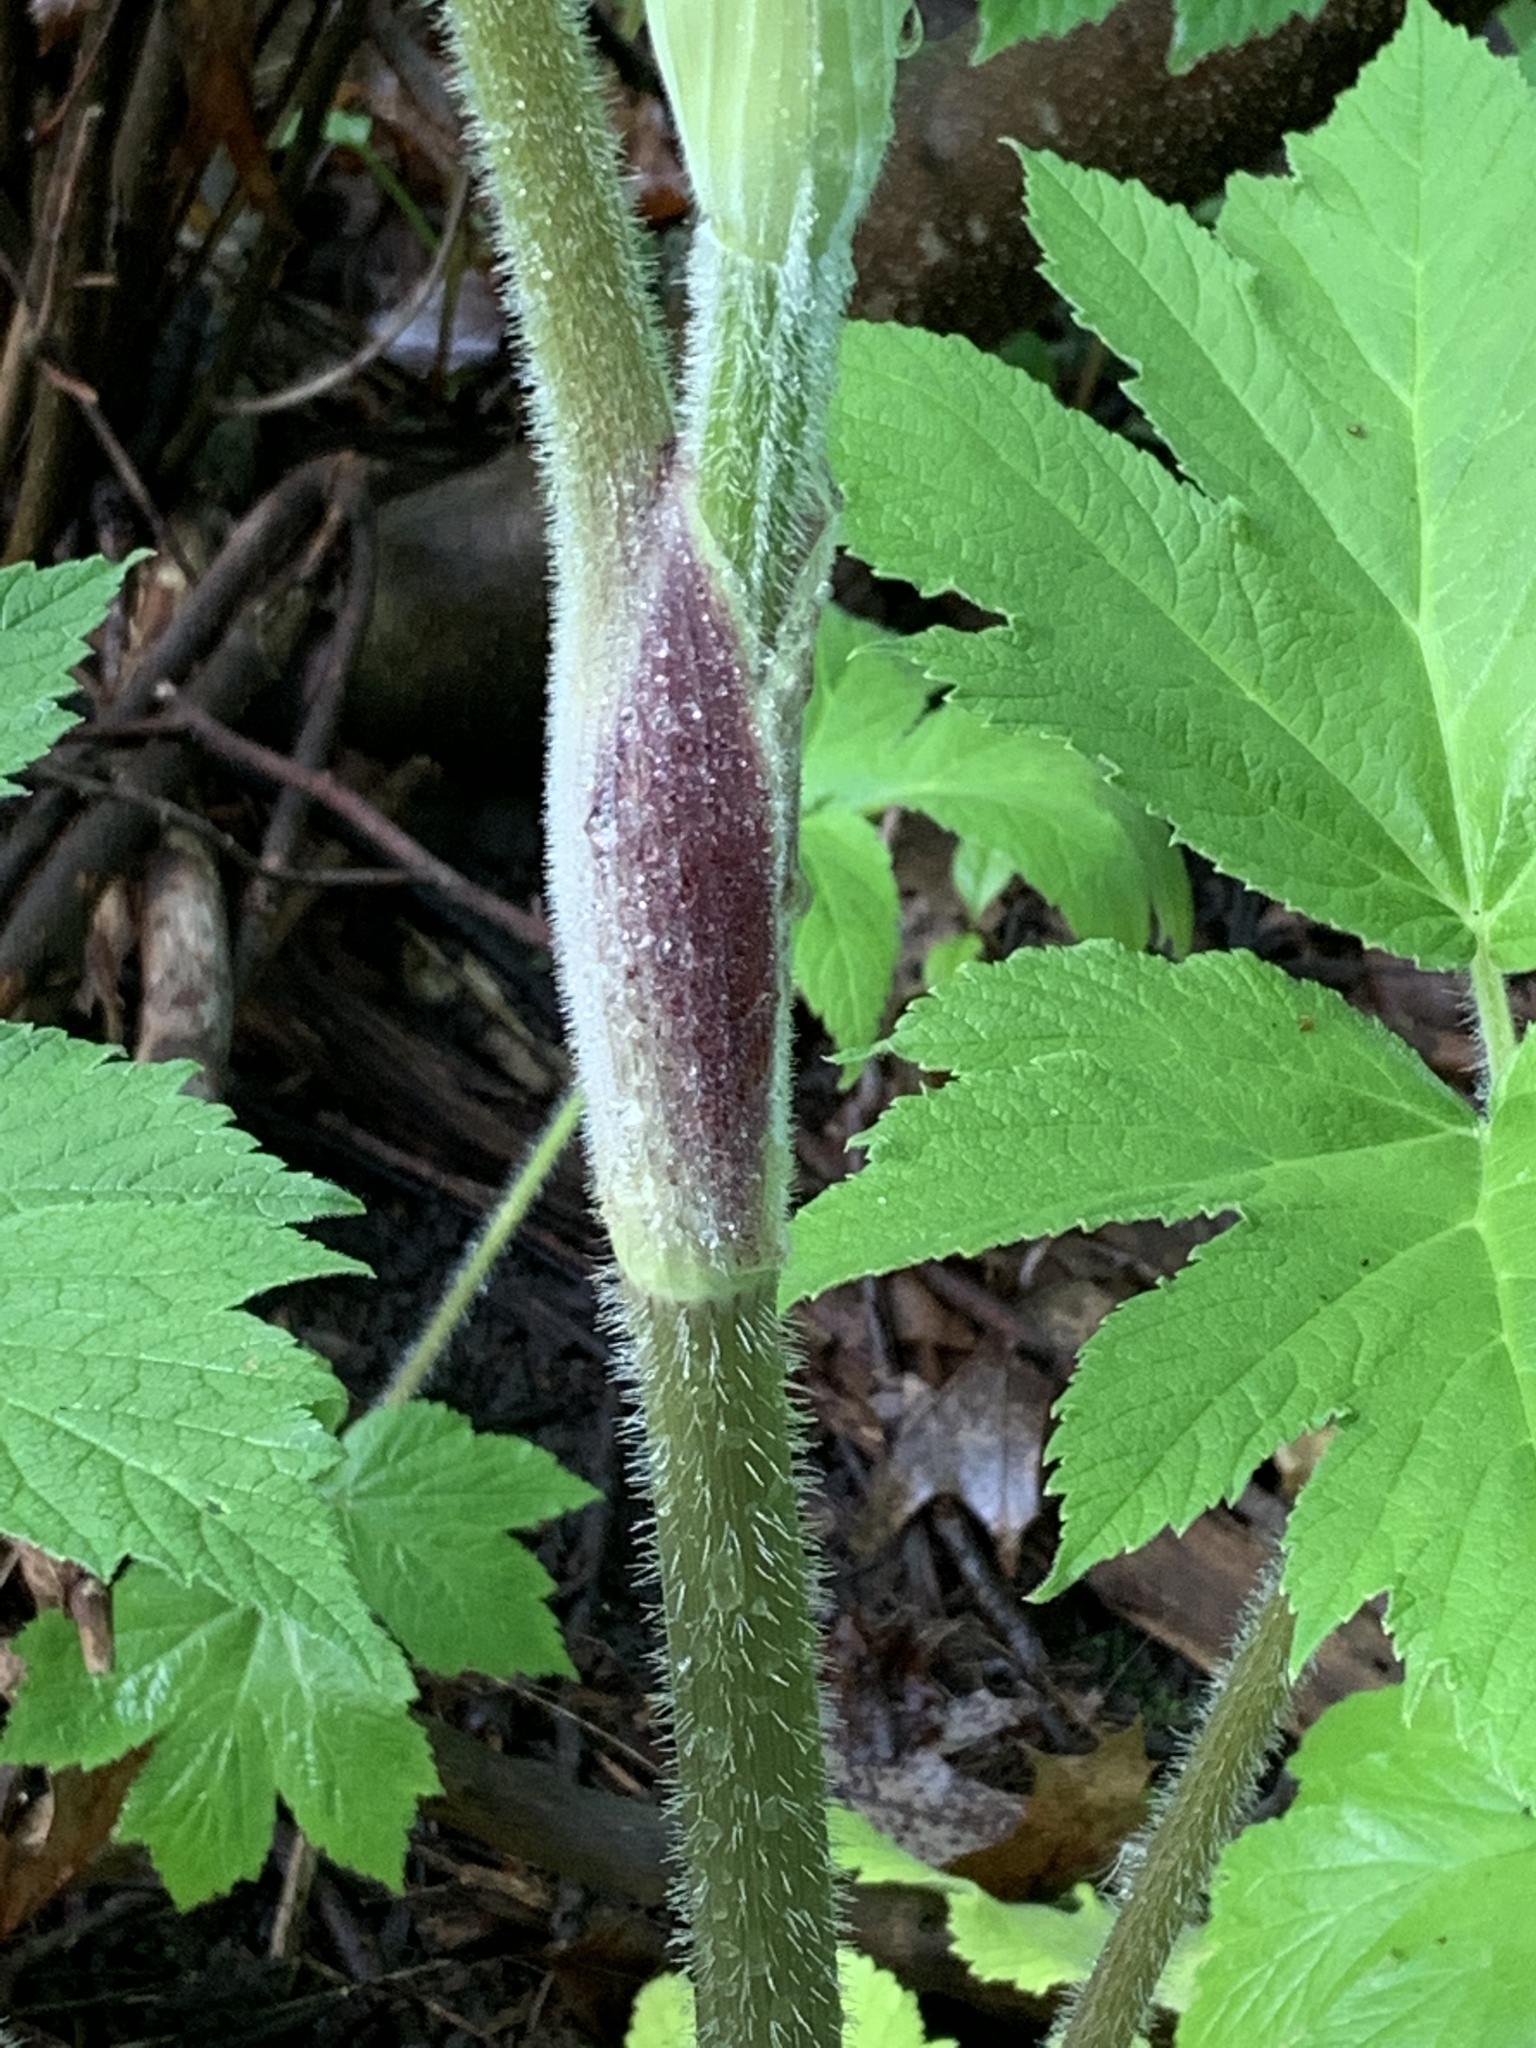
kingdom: Plantae
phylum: Tracheophyta
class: Magnoliopsida
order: Apiales
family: Apiaceae
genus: Heracleum
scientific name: Heracleum maximum
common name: American cow parsnip
